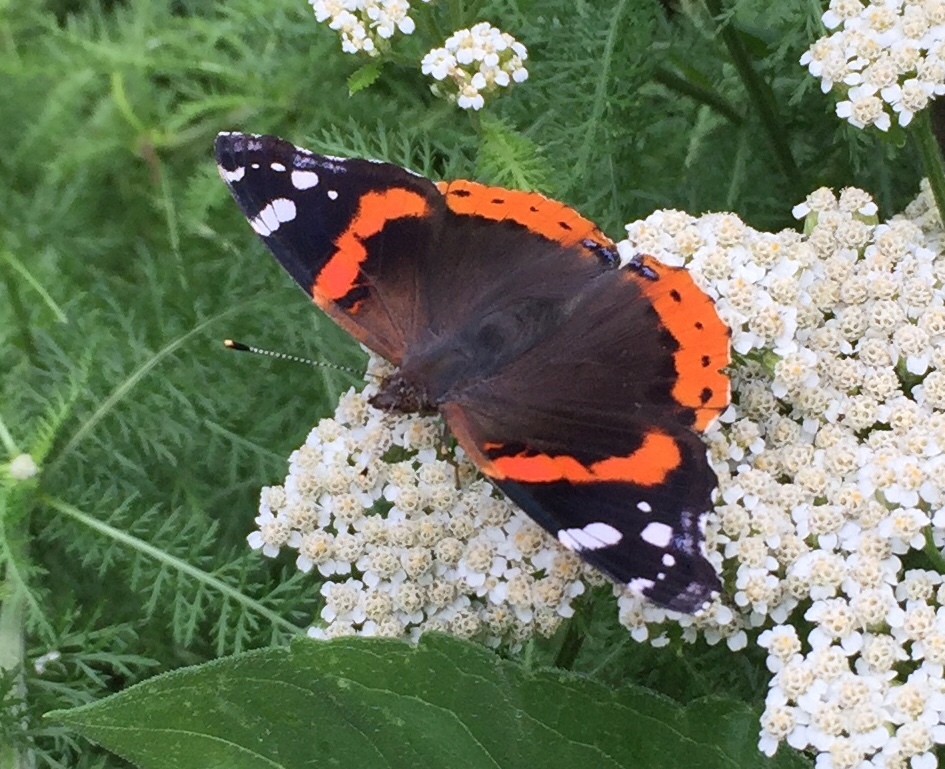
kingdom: Animalia
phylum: Arthropoda
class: Insecta
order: Lepidoptera
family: Nymphalidae
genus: Vanessa
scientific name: Vanessa atalanta
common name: Red admiral
